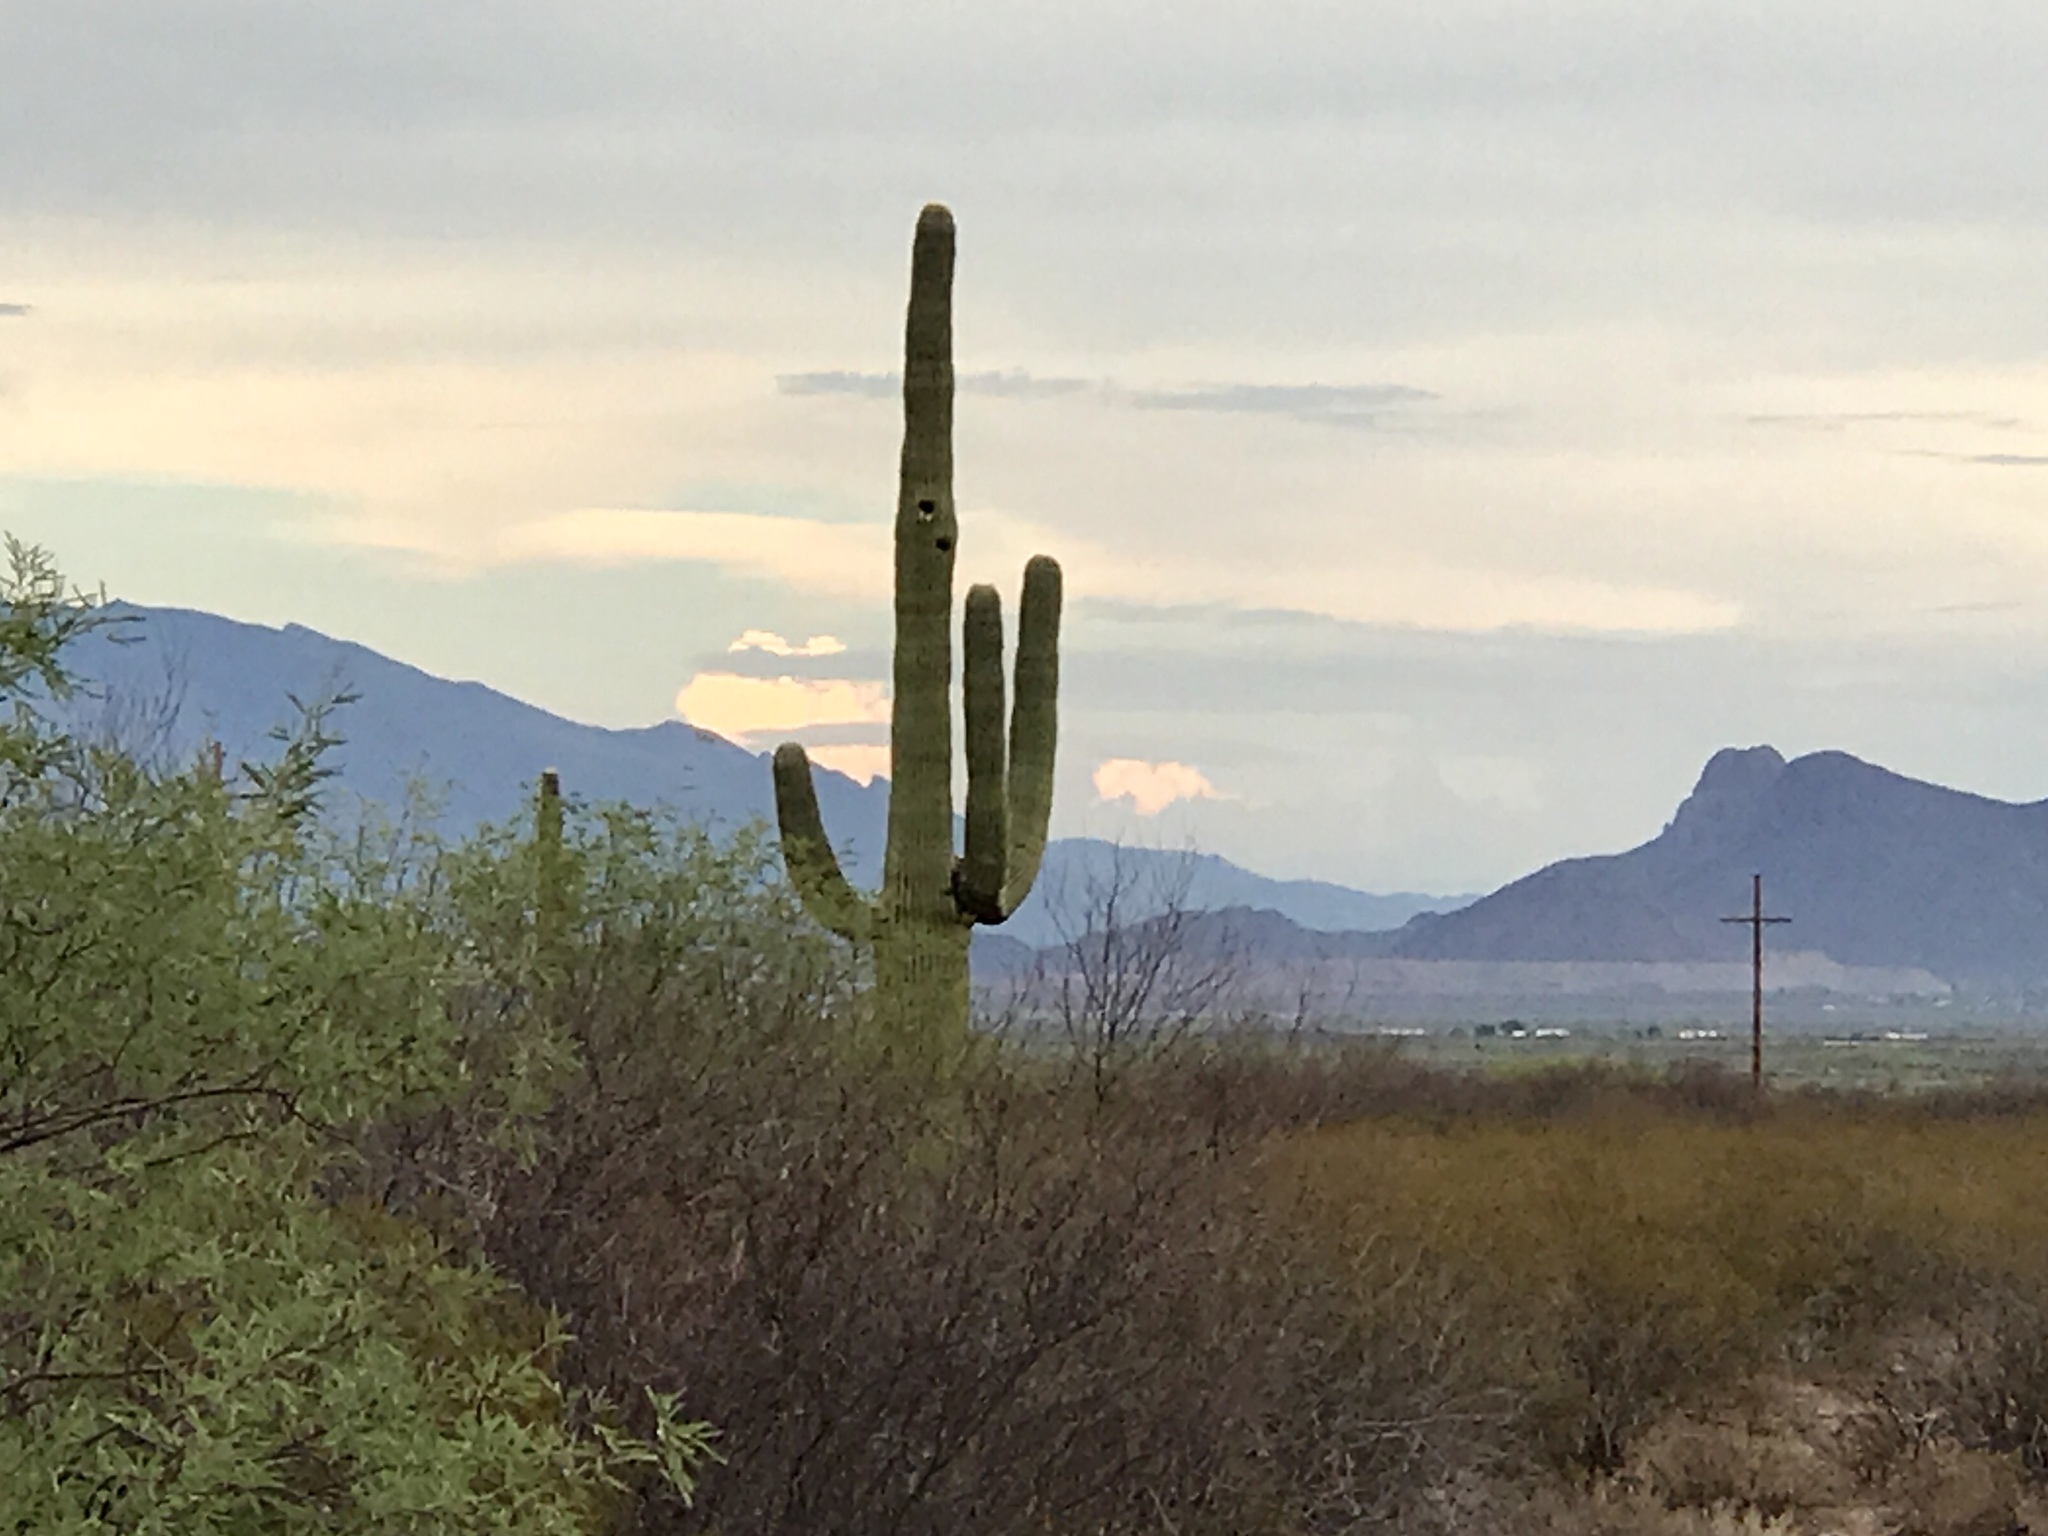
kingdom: Plantae
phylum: Tracheophyta
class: Magnoliopsida
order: Caryophyllales
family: Cactaceae
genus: Carnegiea
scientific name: Carnegiea gigantea
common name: Saguaro
